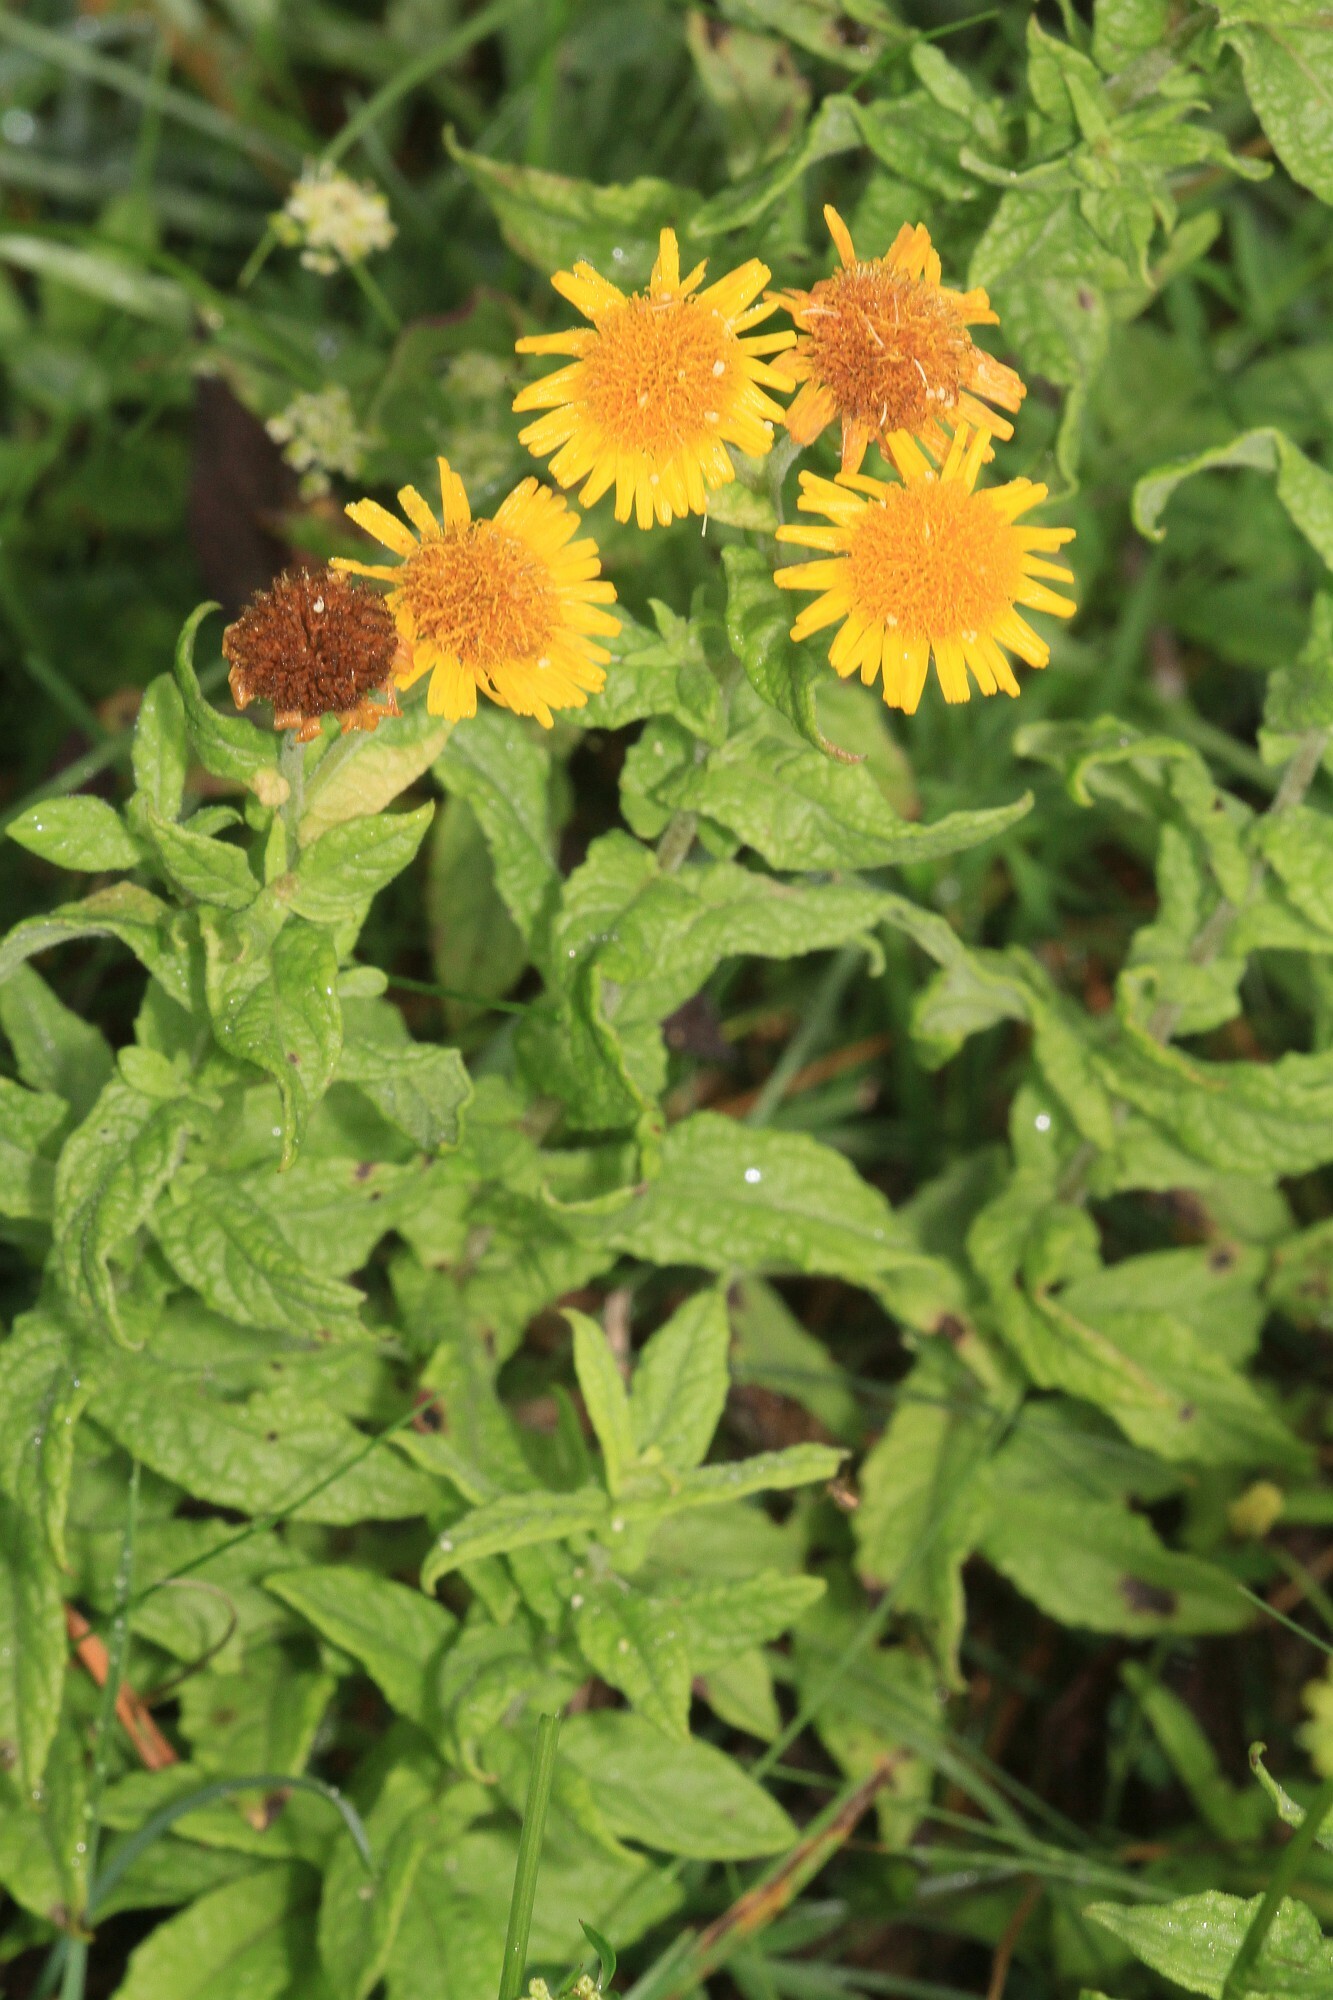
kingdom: Plantae
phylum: Tracheophyta
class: Magnoliopsida
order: Asterales
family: Asteraceae
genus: Pulicaria
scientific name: Pulicaria dysenterica
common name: Common fleabane
